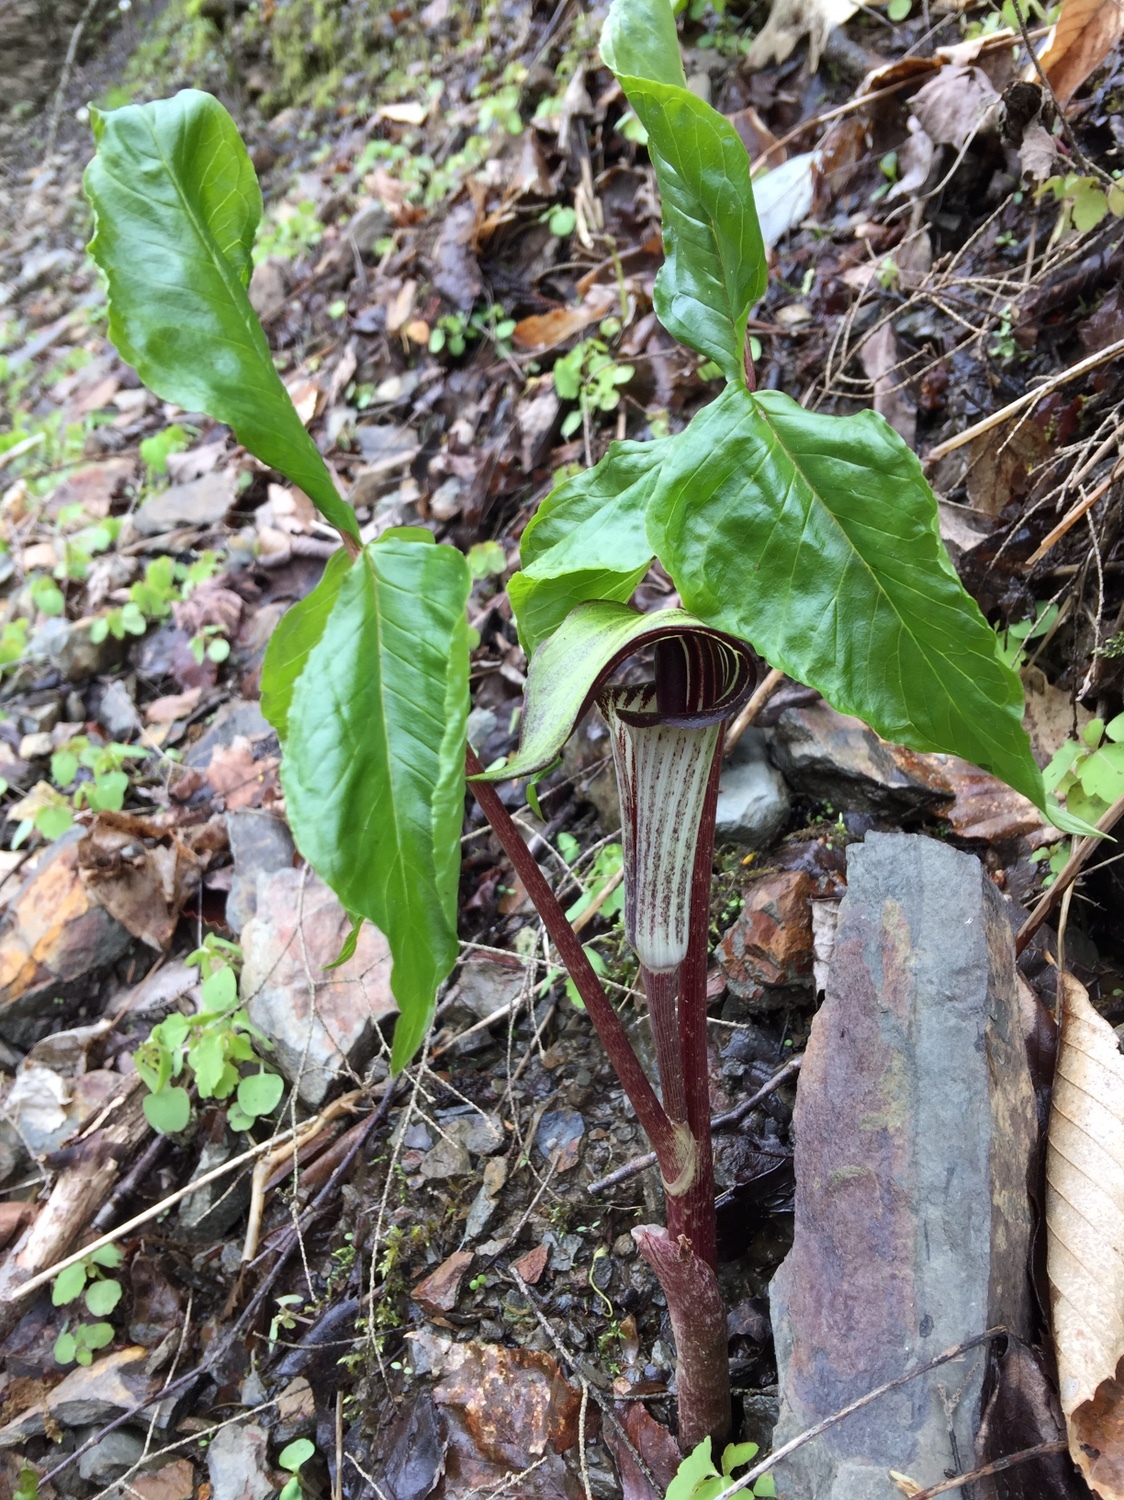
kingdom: Plantae
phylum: Tracheophyta
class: Liliopsida
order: Alismatales
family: Araceae
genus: Arisaema
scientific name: Arisaema triphyllum
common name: Jack-in-the-pulpit
